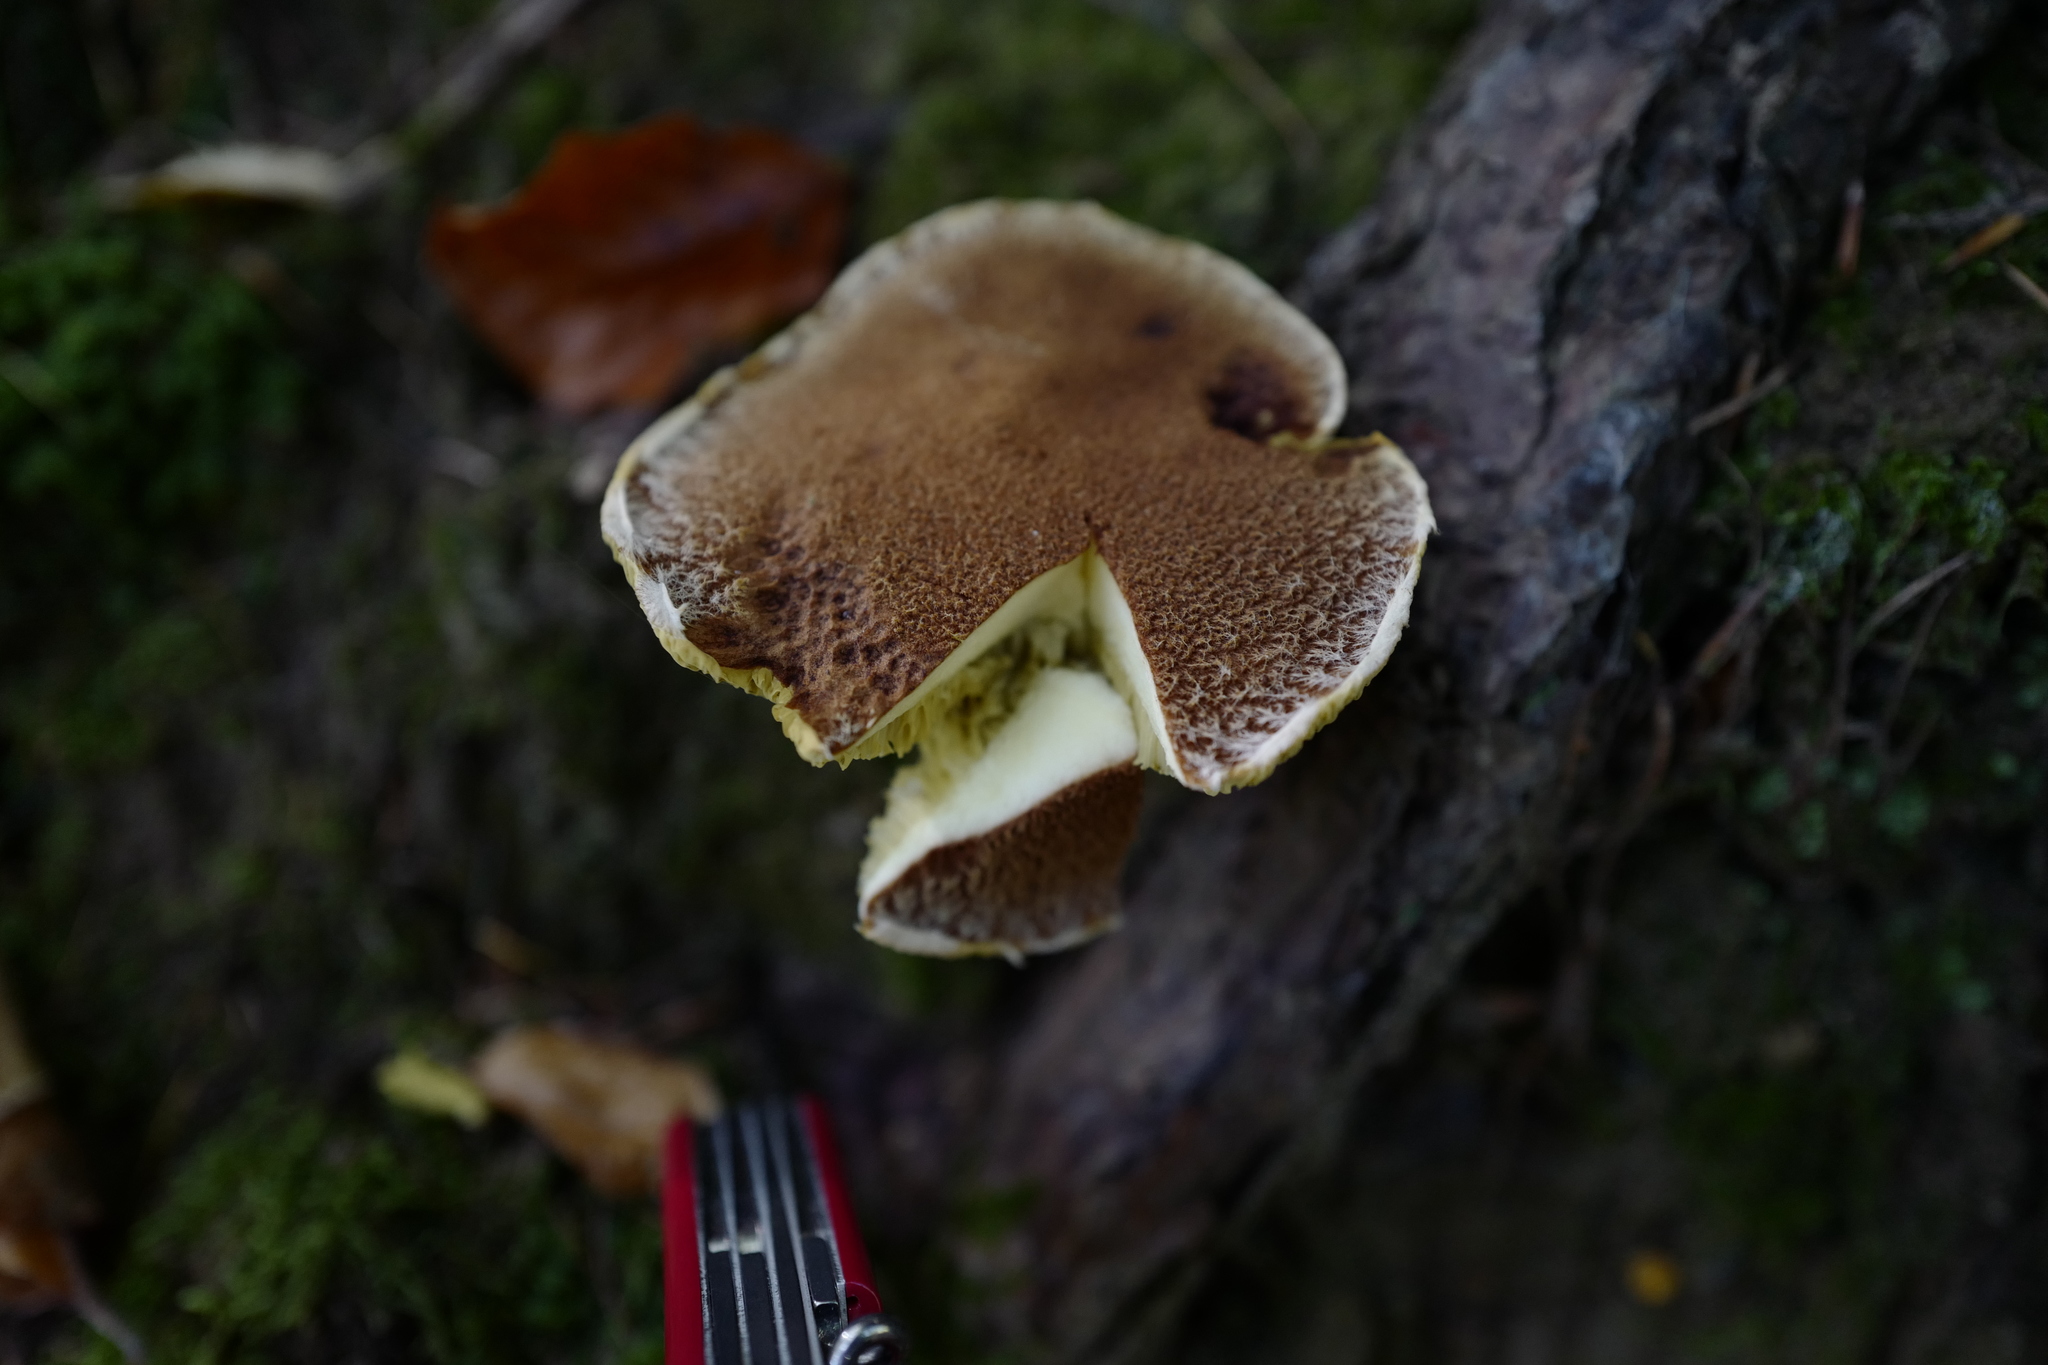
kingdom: Fungi
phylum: Basidiomycota
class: Agaricomycetes
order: Boletales
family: Suillaceae
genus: Suillus
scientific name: Suillus cavipes
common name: Hollow bolete
